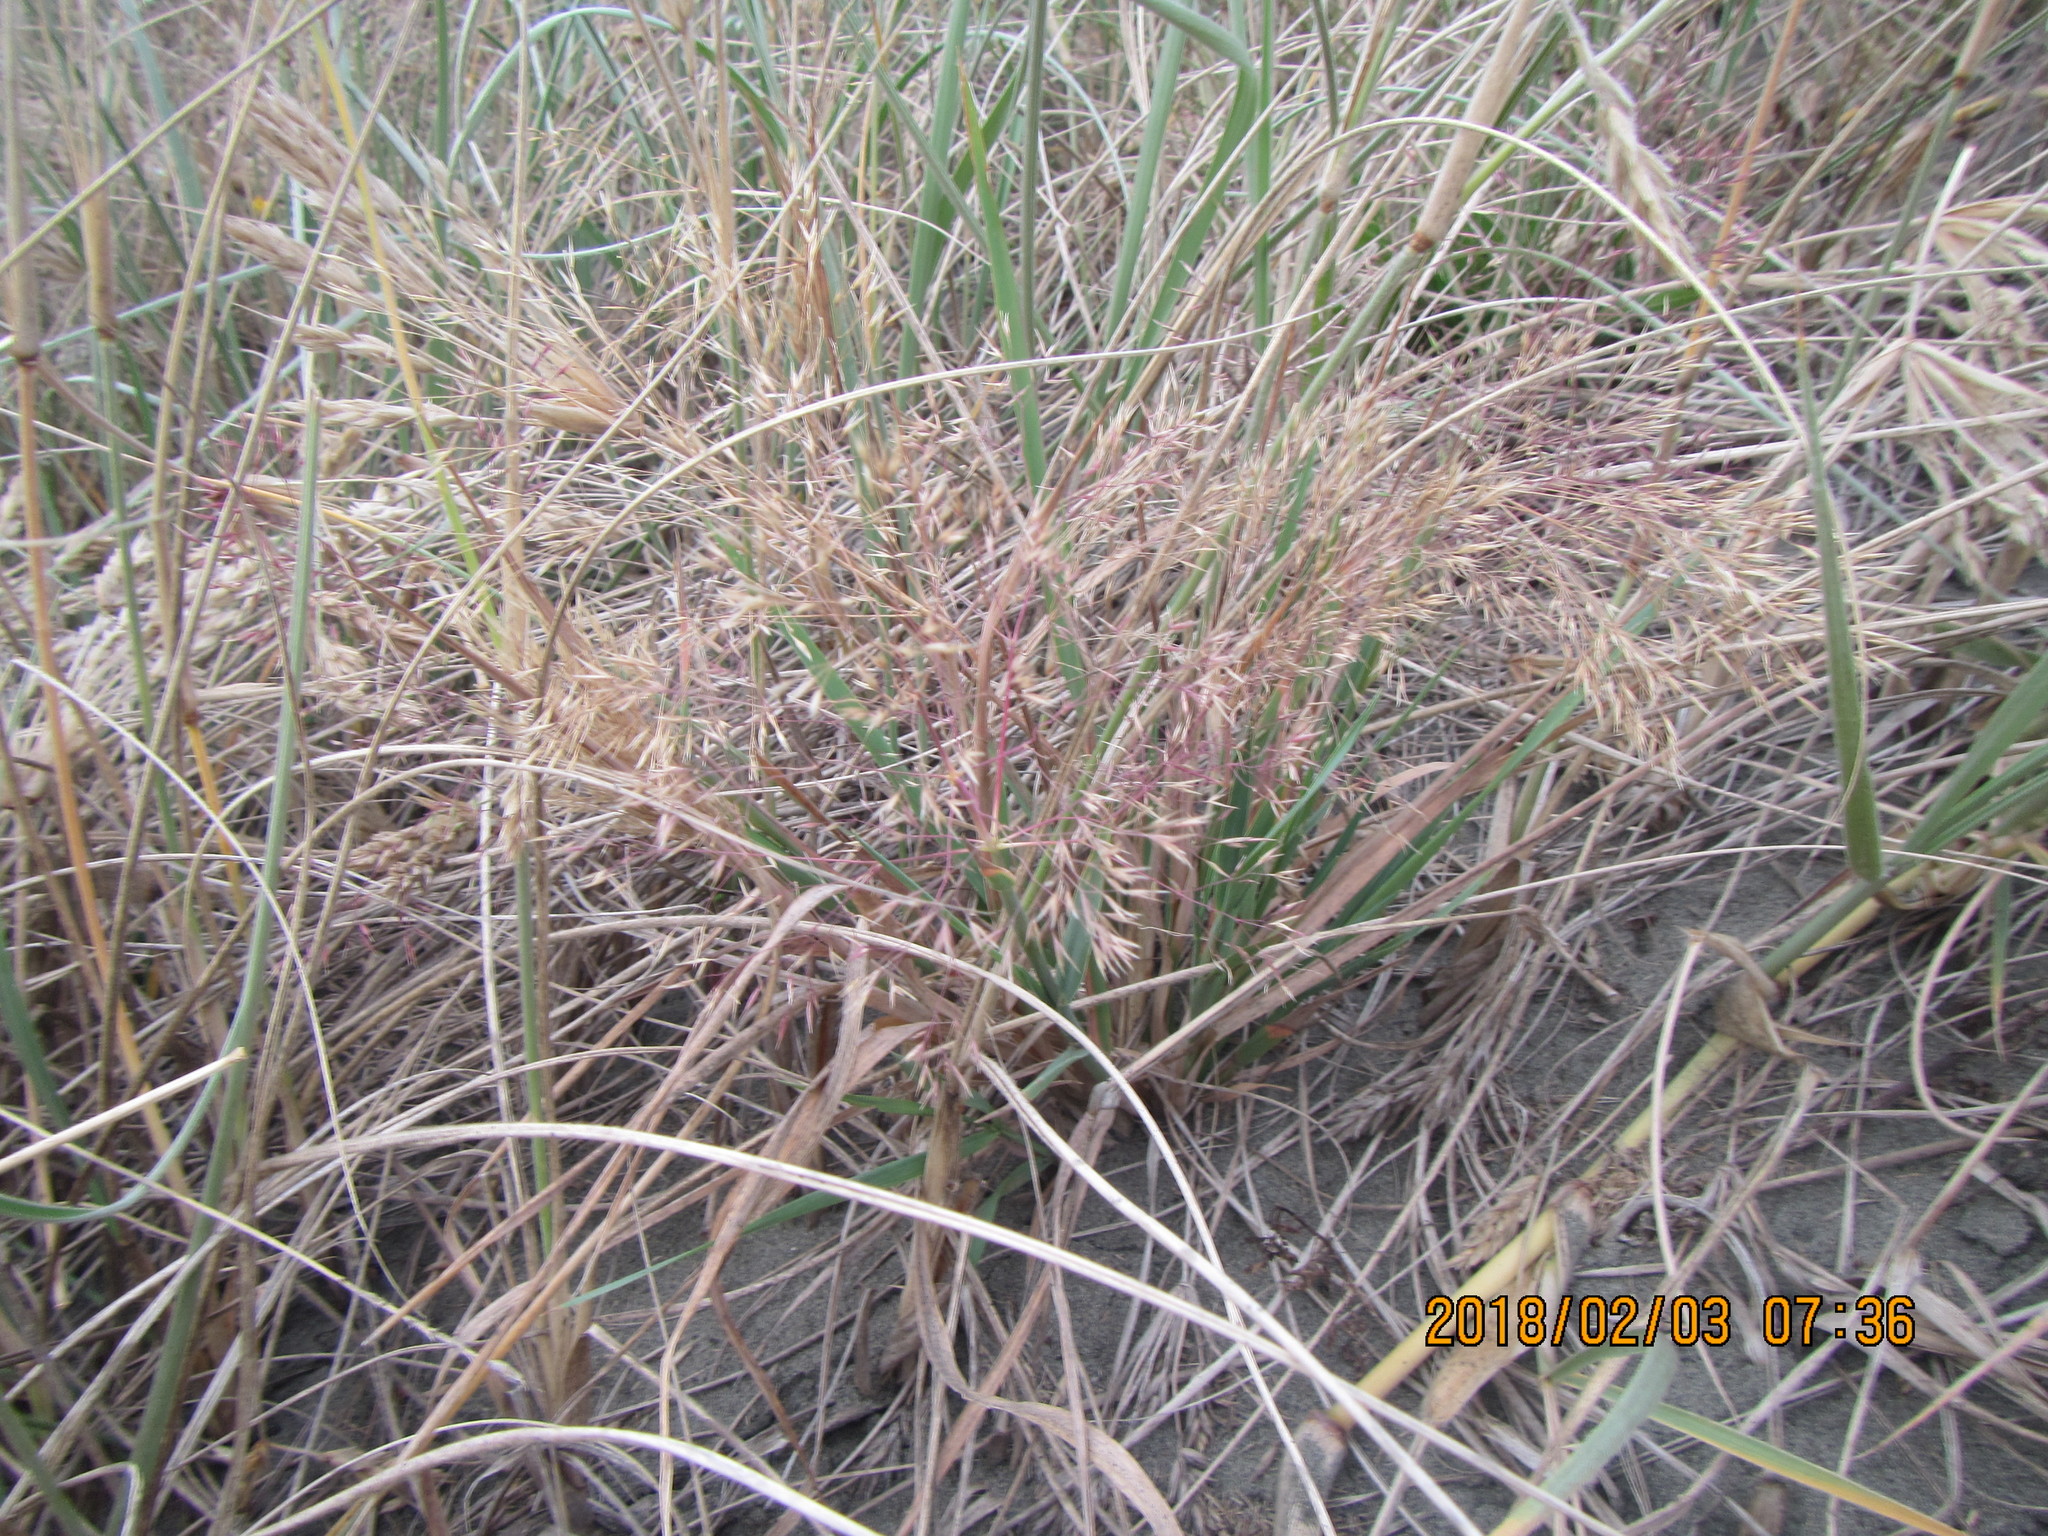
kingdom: Plantae
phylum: Tracheophyta
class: Liliopsida
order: Poales
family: Poaceae
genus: Lachnagrostis
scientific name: Lachnagrostis billardierei
